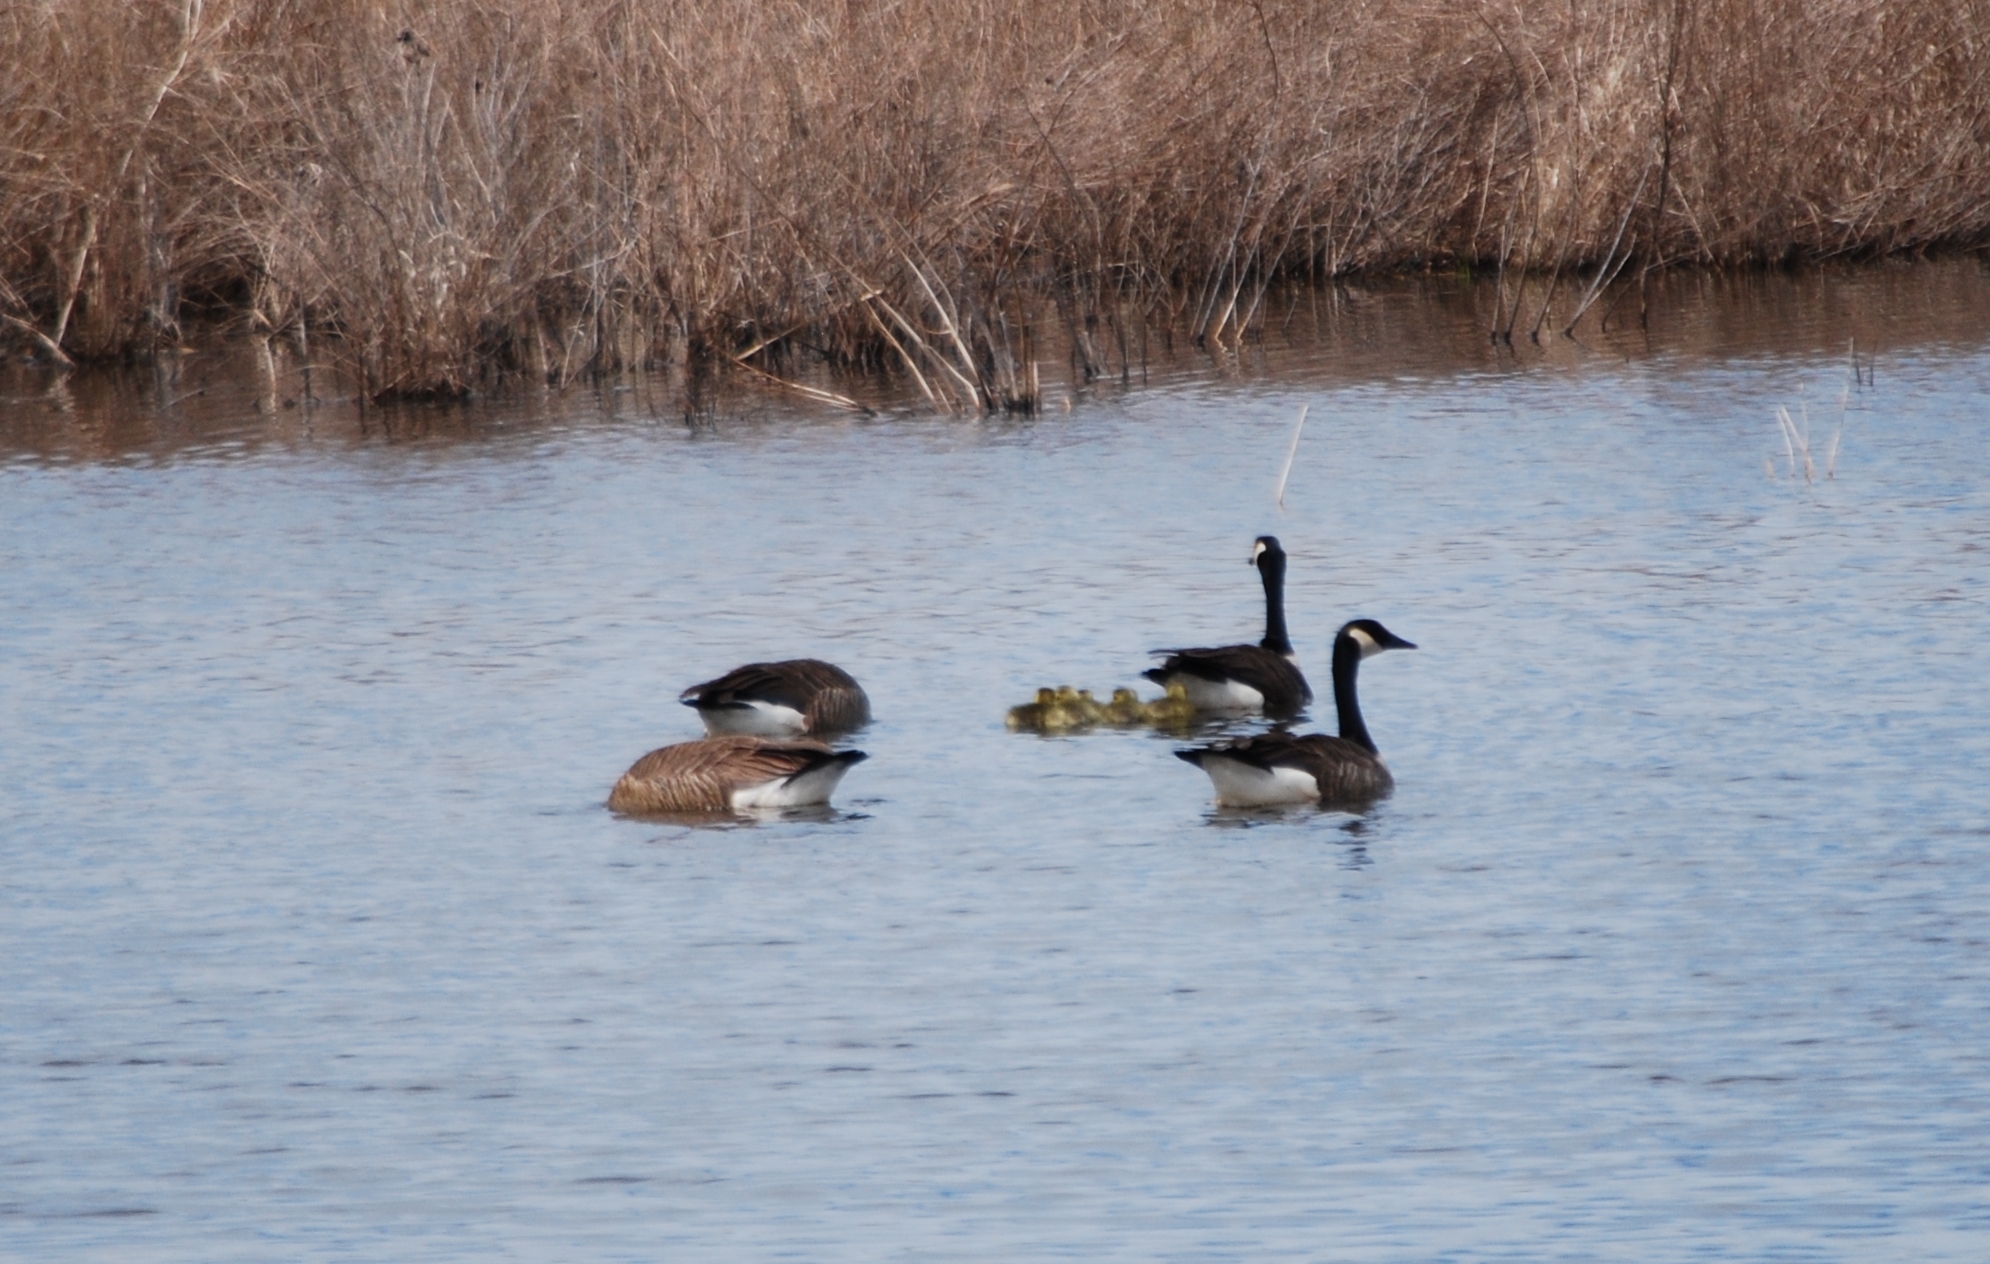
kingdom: Animalia
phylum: Chordata
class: Aves
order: Anseriformes
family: Anatidae
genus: Branta
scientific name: Branta canadensis
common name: Canada goose
